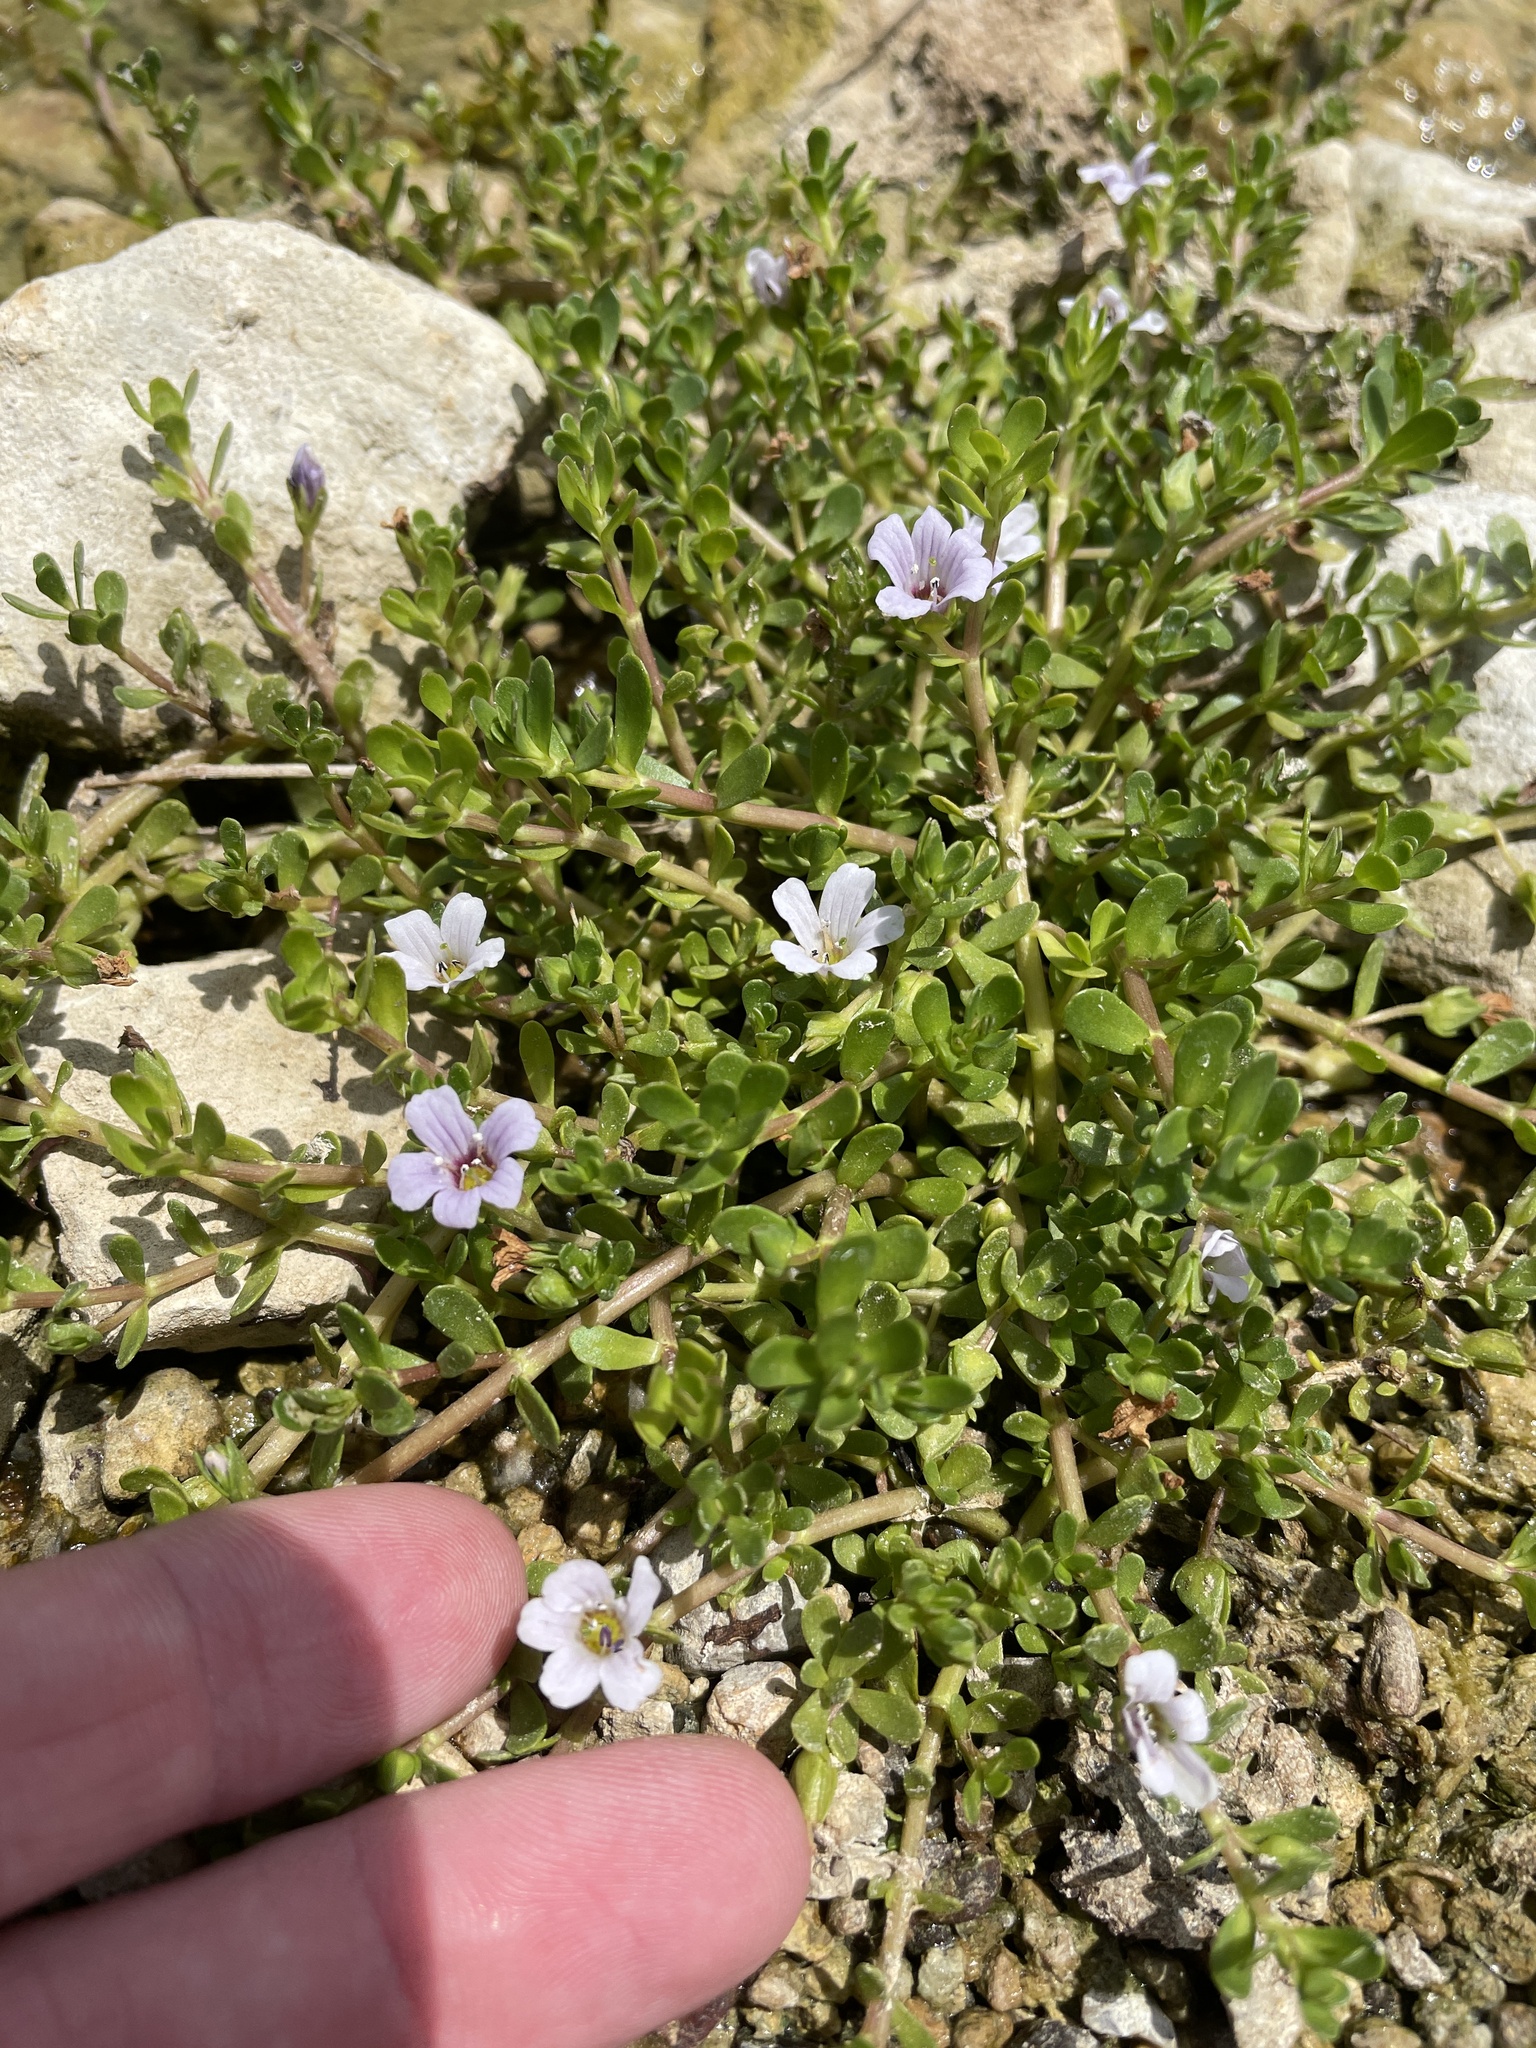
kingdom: Plantae
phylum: Tracheophyta
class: Magnoliopsida
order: Lamiales
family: Plantaginaceae
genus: Bacopa
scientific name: Bacopa monnieri
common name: Indian-pennywort
